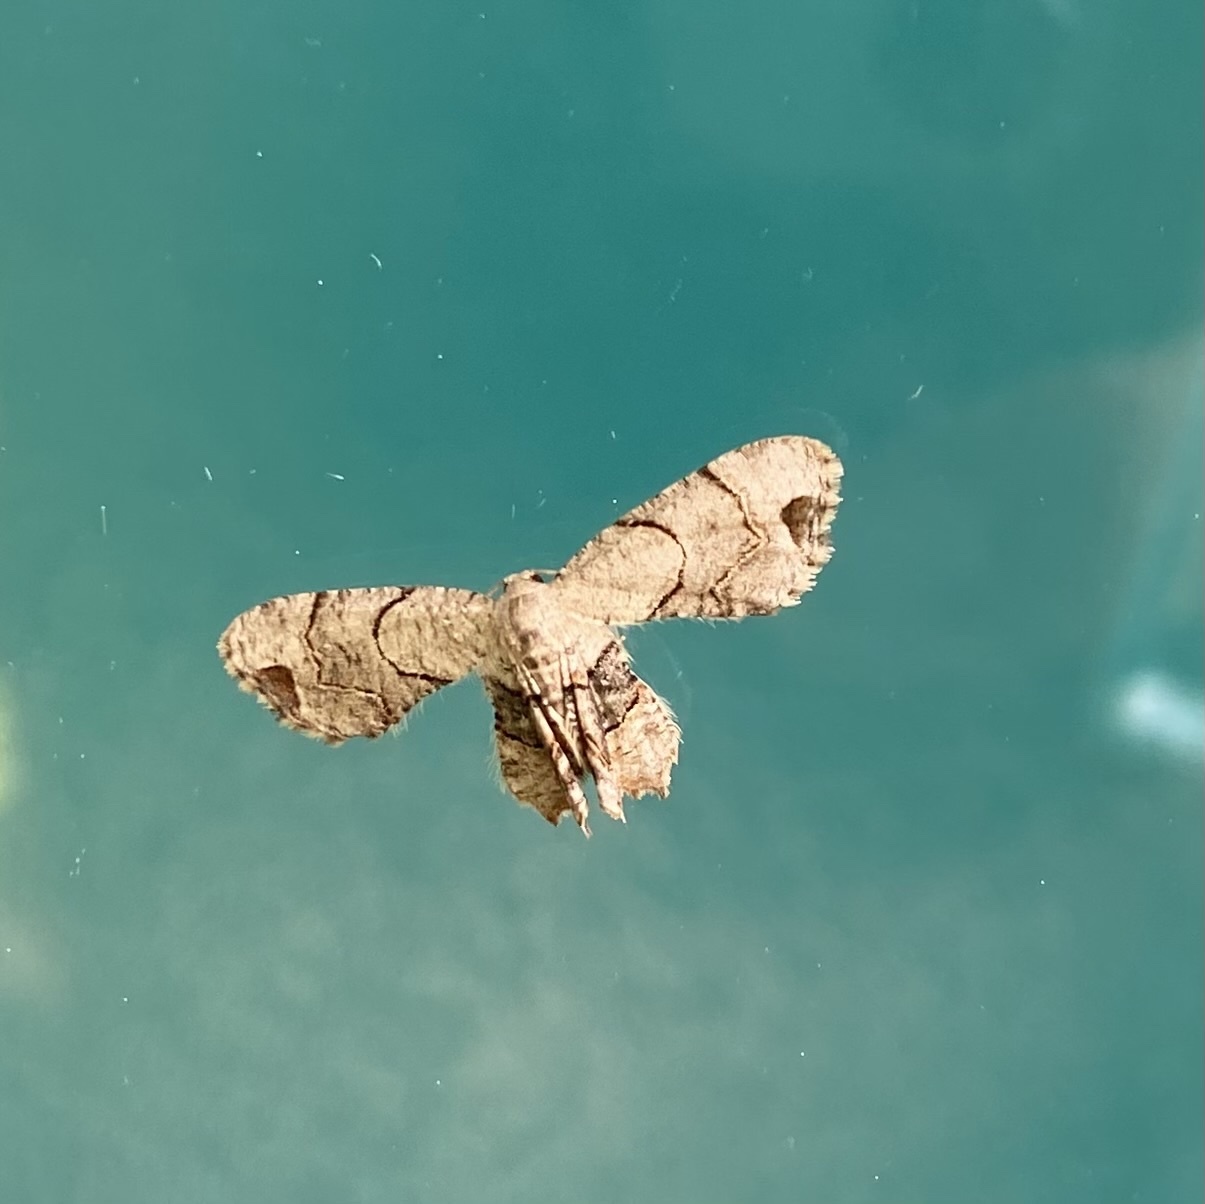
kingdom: Animalia
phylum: Arthropoda
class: Insecta
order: Lepidoptera
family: Uraniidae
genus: Epiplema
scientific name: Epiplema Callizzia amorata
